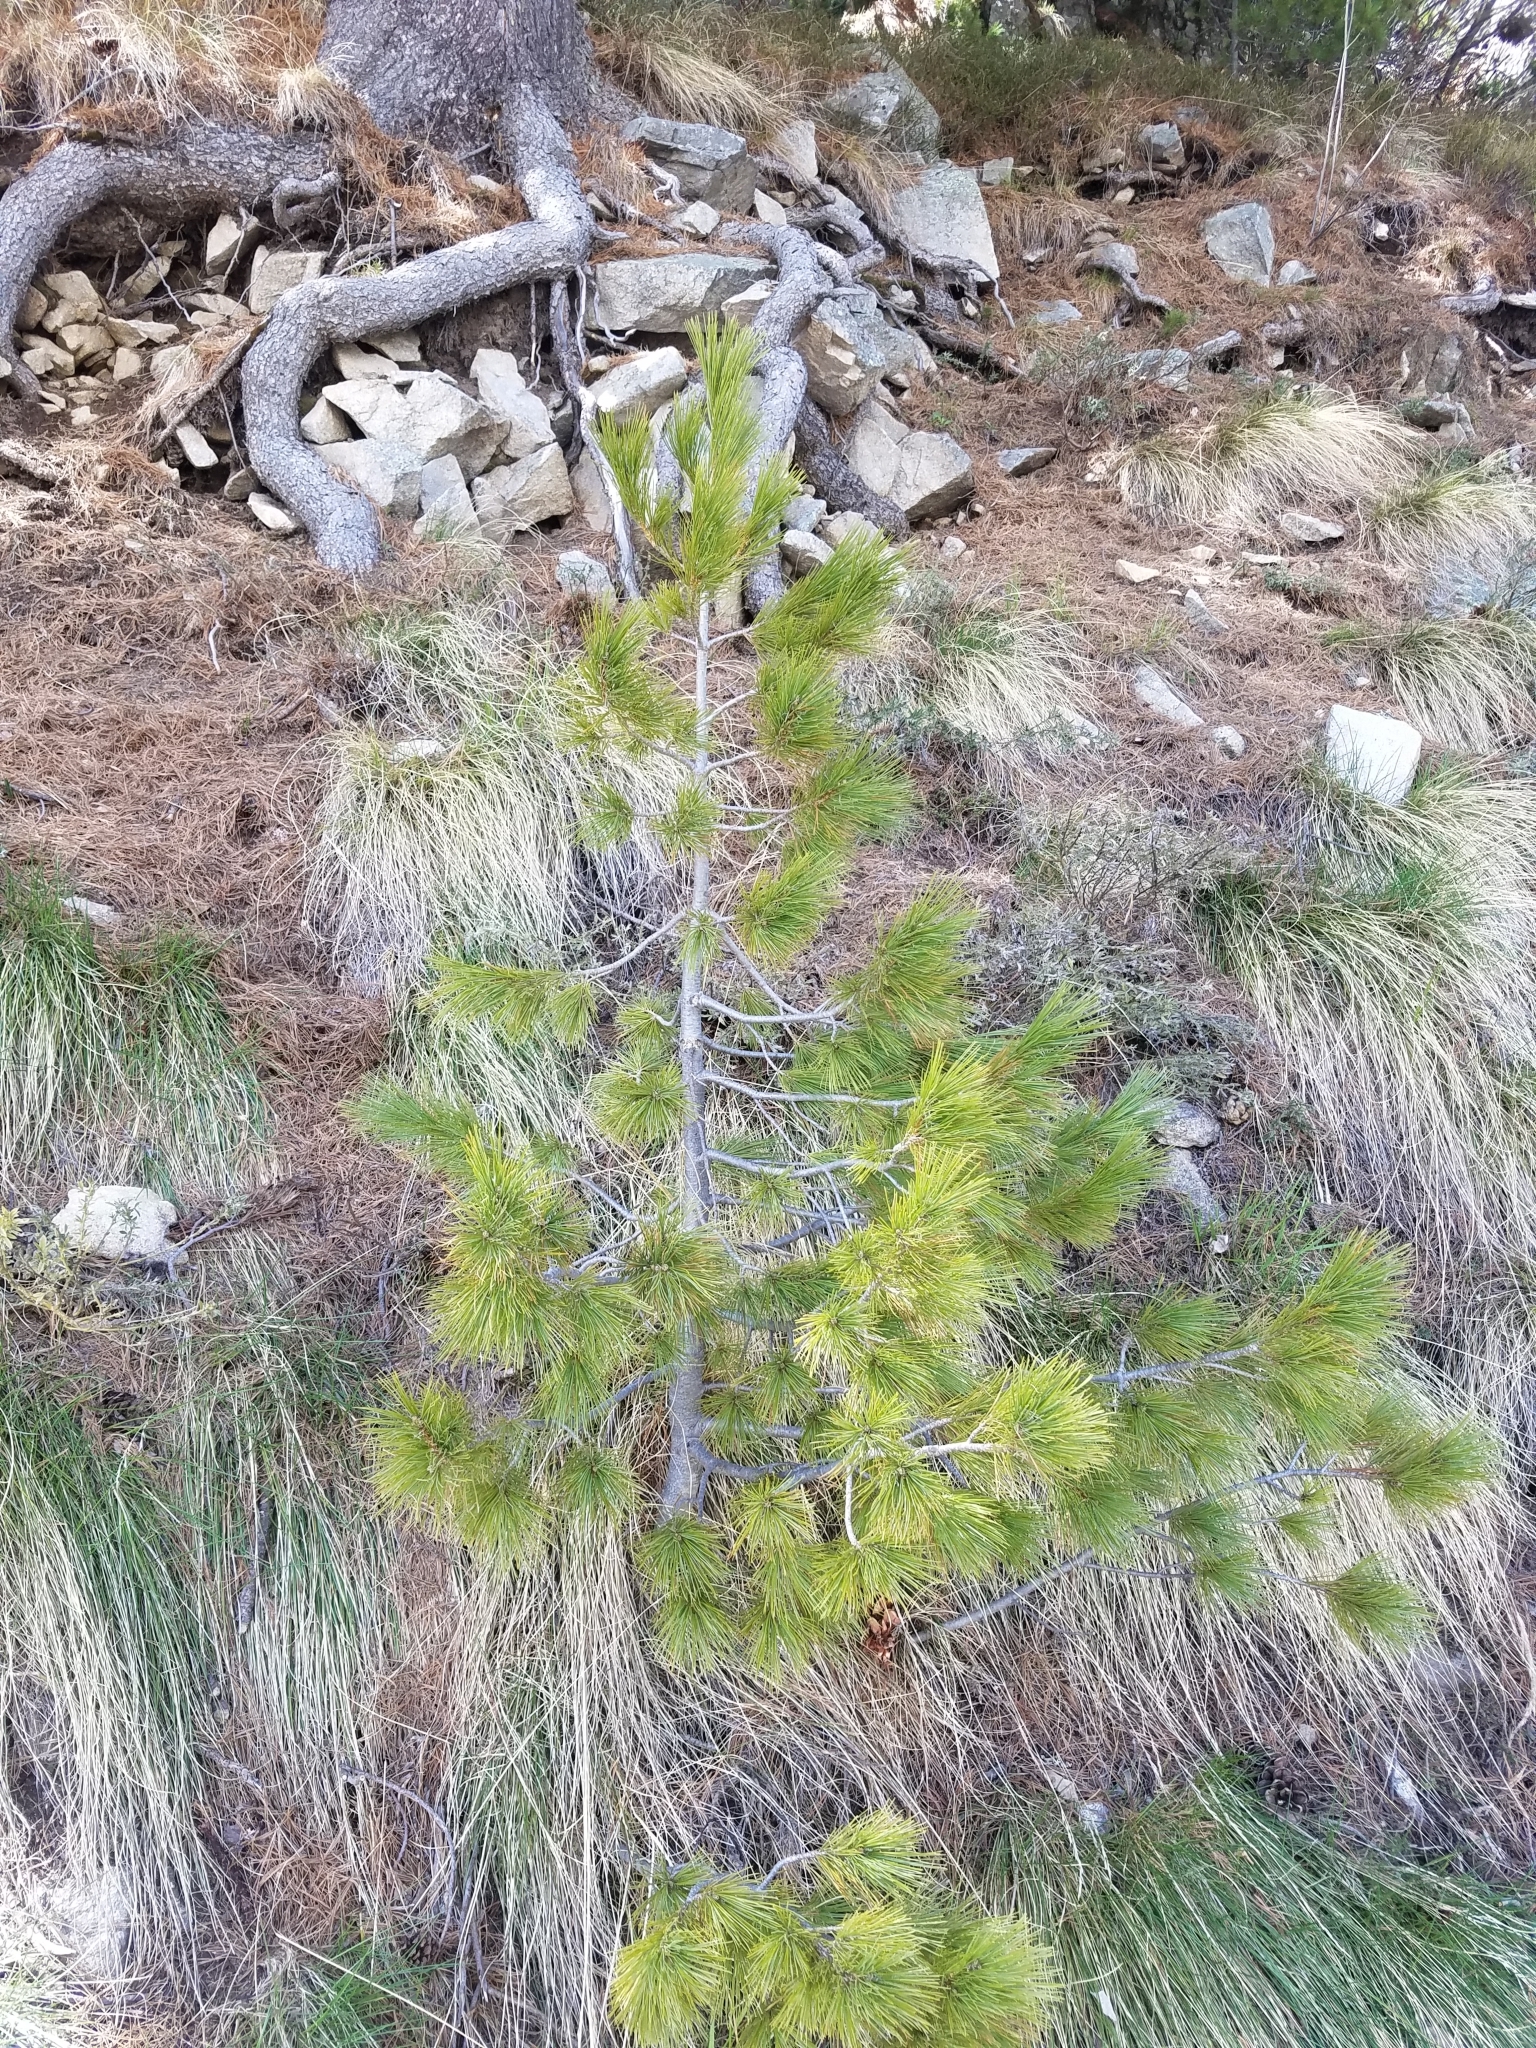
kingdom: Plantae
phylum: Tracheophyta
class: Pinopsida
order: Pinales
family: Pinaceae
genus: Pinus
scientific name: Pinus peuce
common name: Macedonian pine
